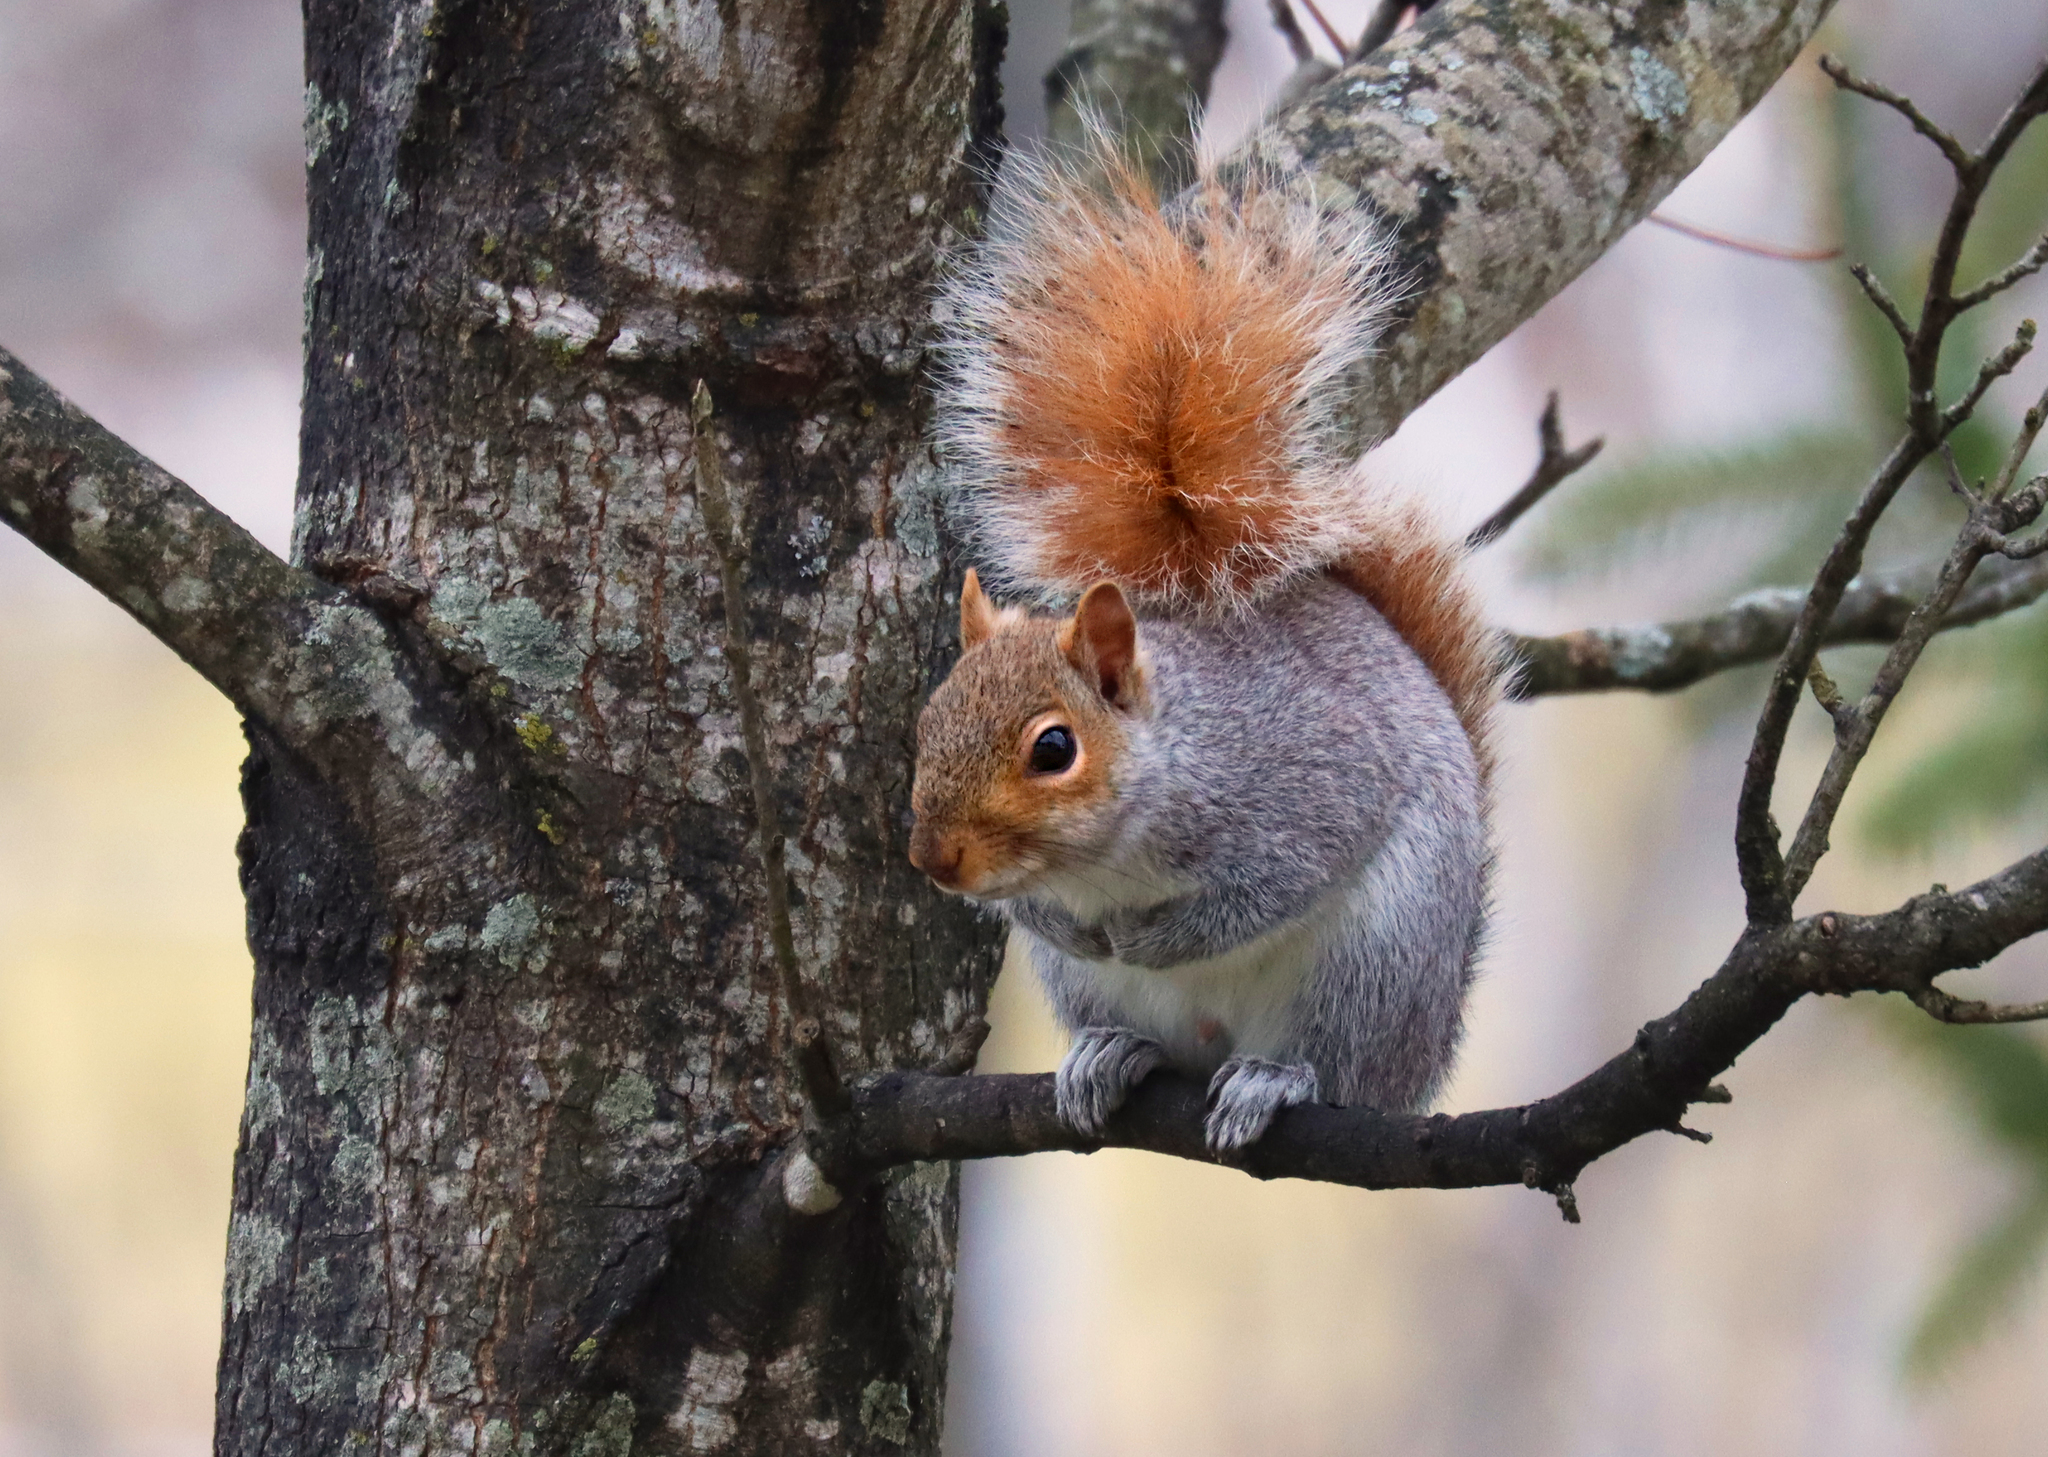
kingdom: Animalia
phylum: Chordata
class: Mammalia
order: Rodentia
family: Sciuridae
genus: Sciurus
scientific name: Sciurus carolinensis
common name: Eastern gray squirrel
